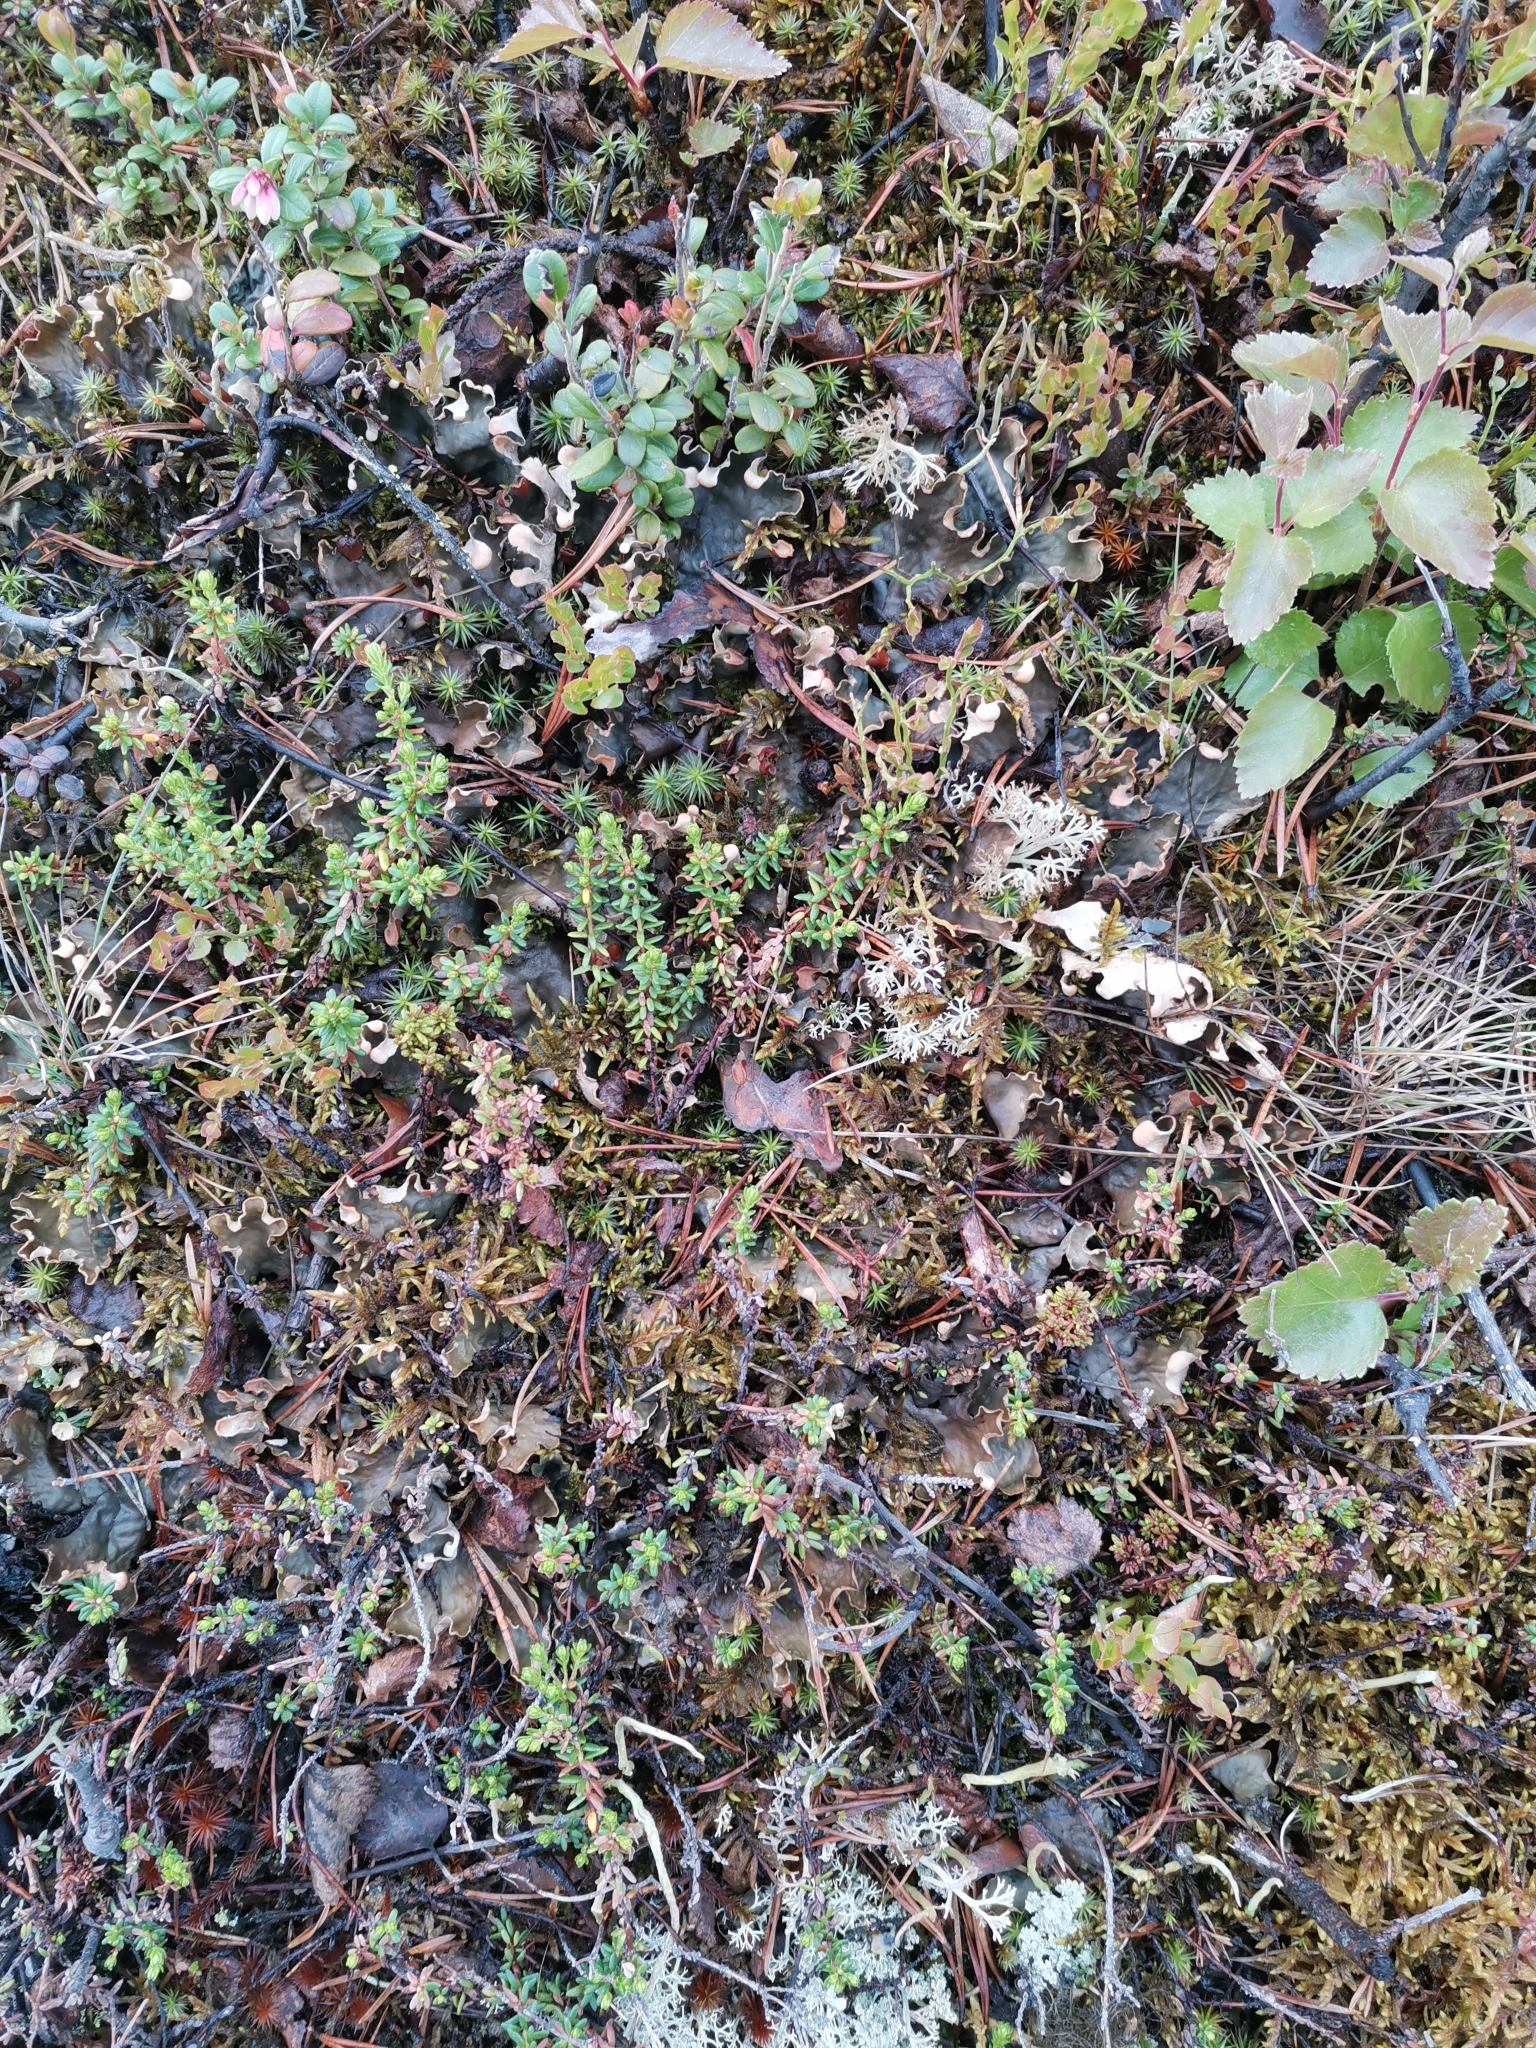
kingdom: Fungi
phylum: Ascomycota
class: Lecanoromycetes
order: Peltigerales
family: Peltigeraceae
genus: Peltigera
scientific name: Peltigera neopolydactyla
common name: Carpet pelt
